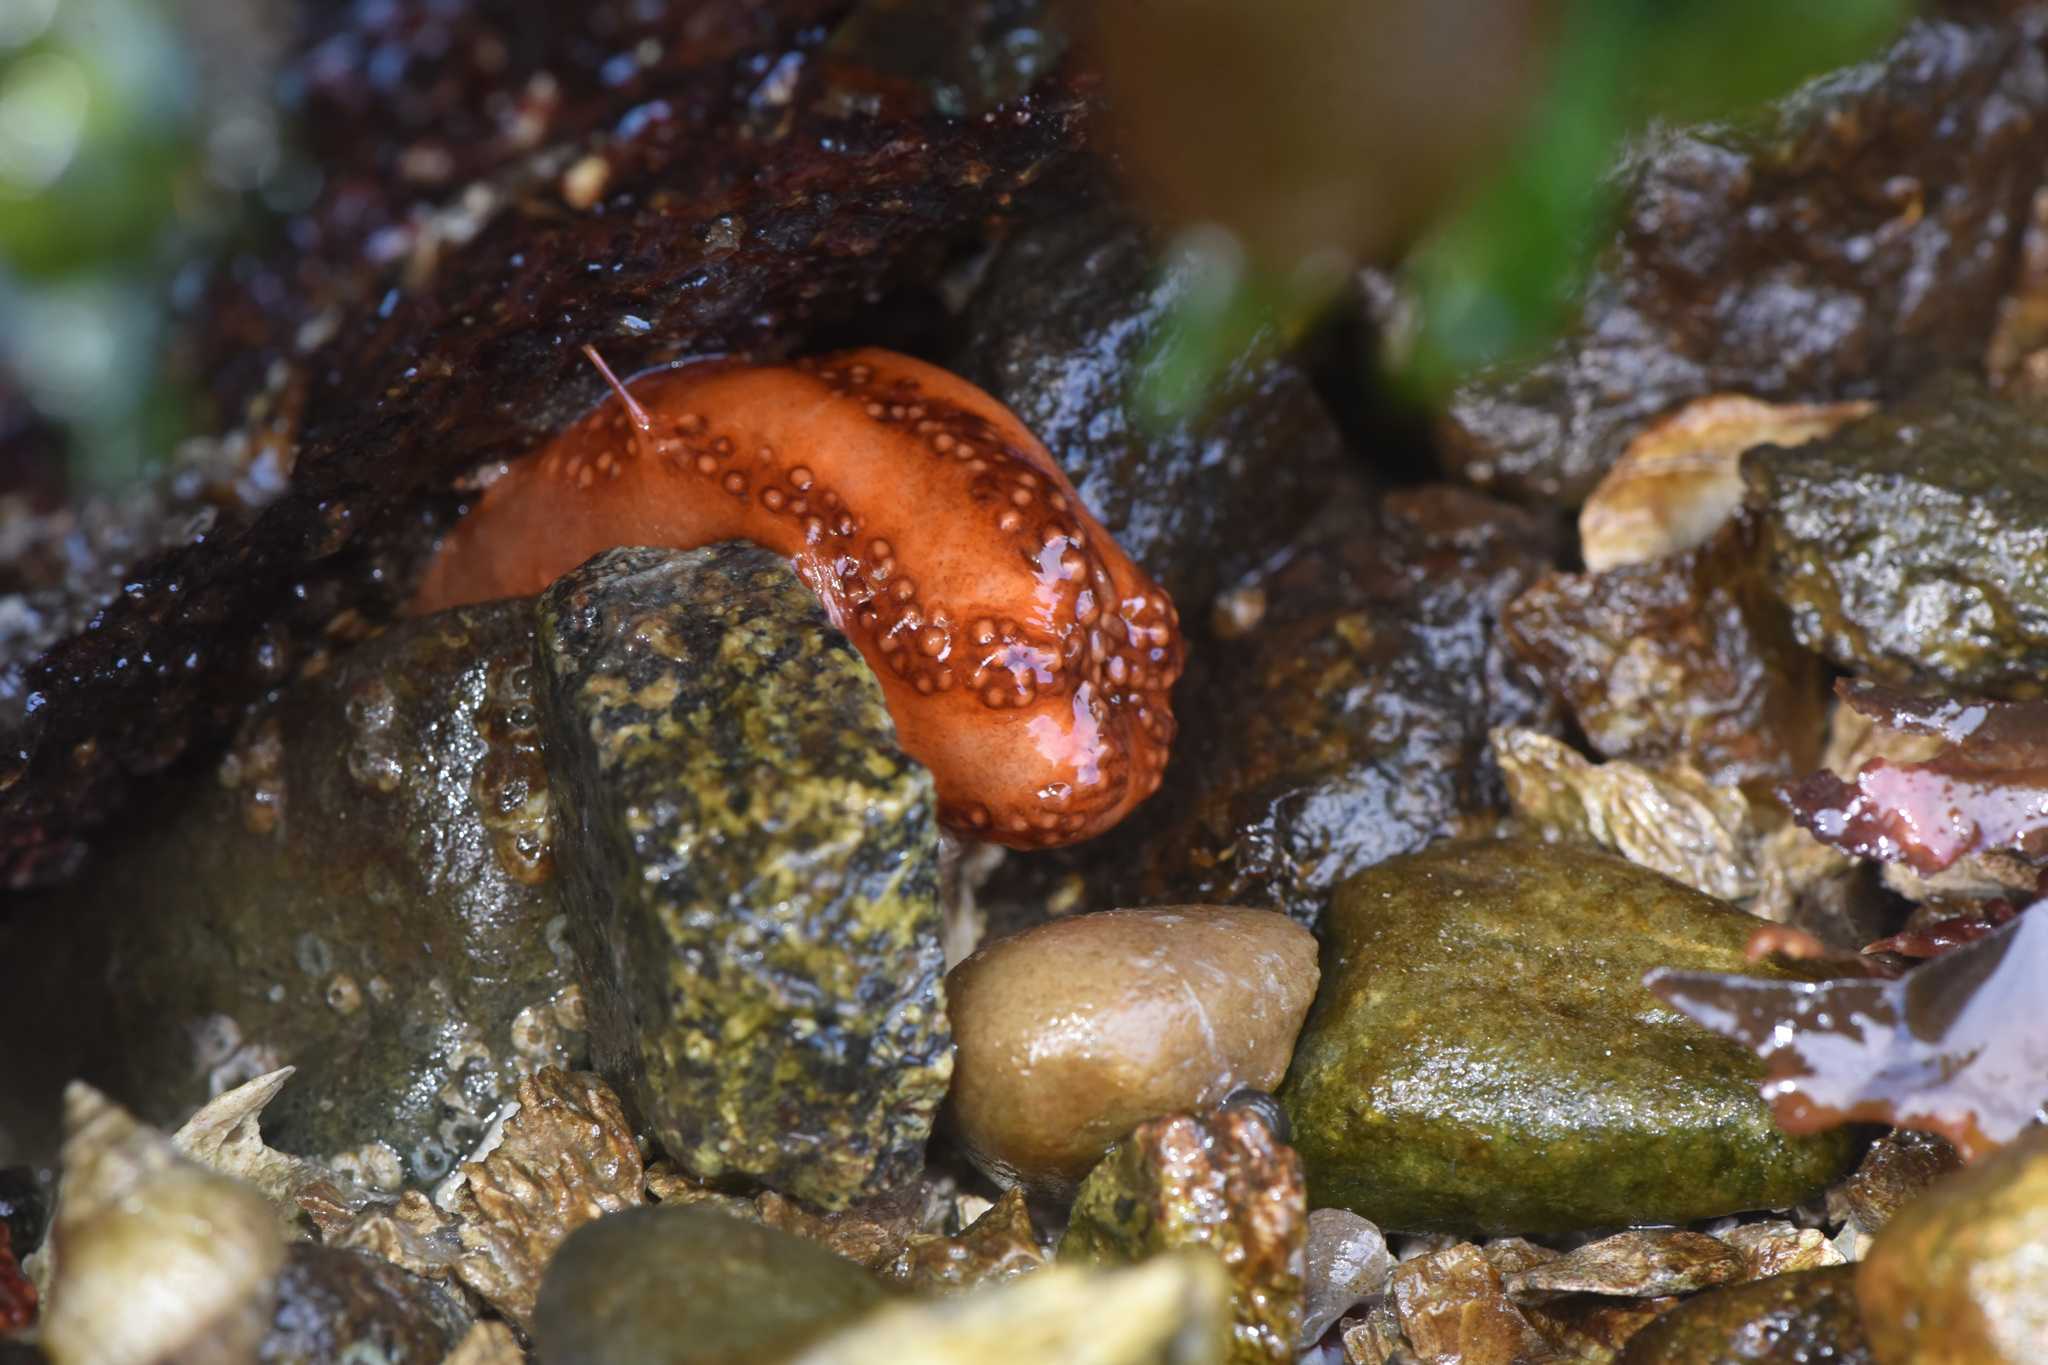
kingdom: Animalia
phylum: Echinodermata
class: Holothuroidea
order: Dendrochirotida
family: Cucumariidae
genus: Cucumaria
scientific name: Cucumaria miniata
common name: Orange sea cucumber
